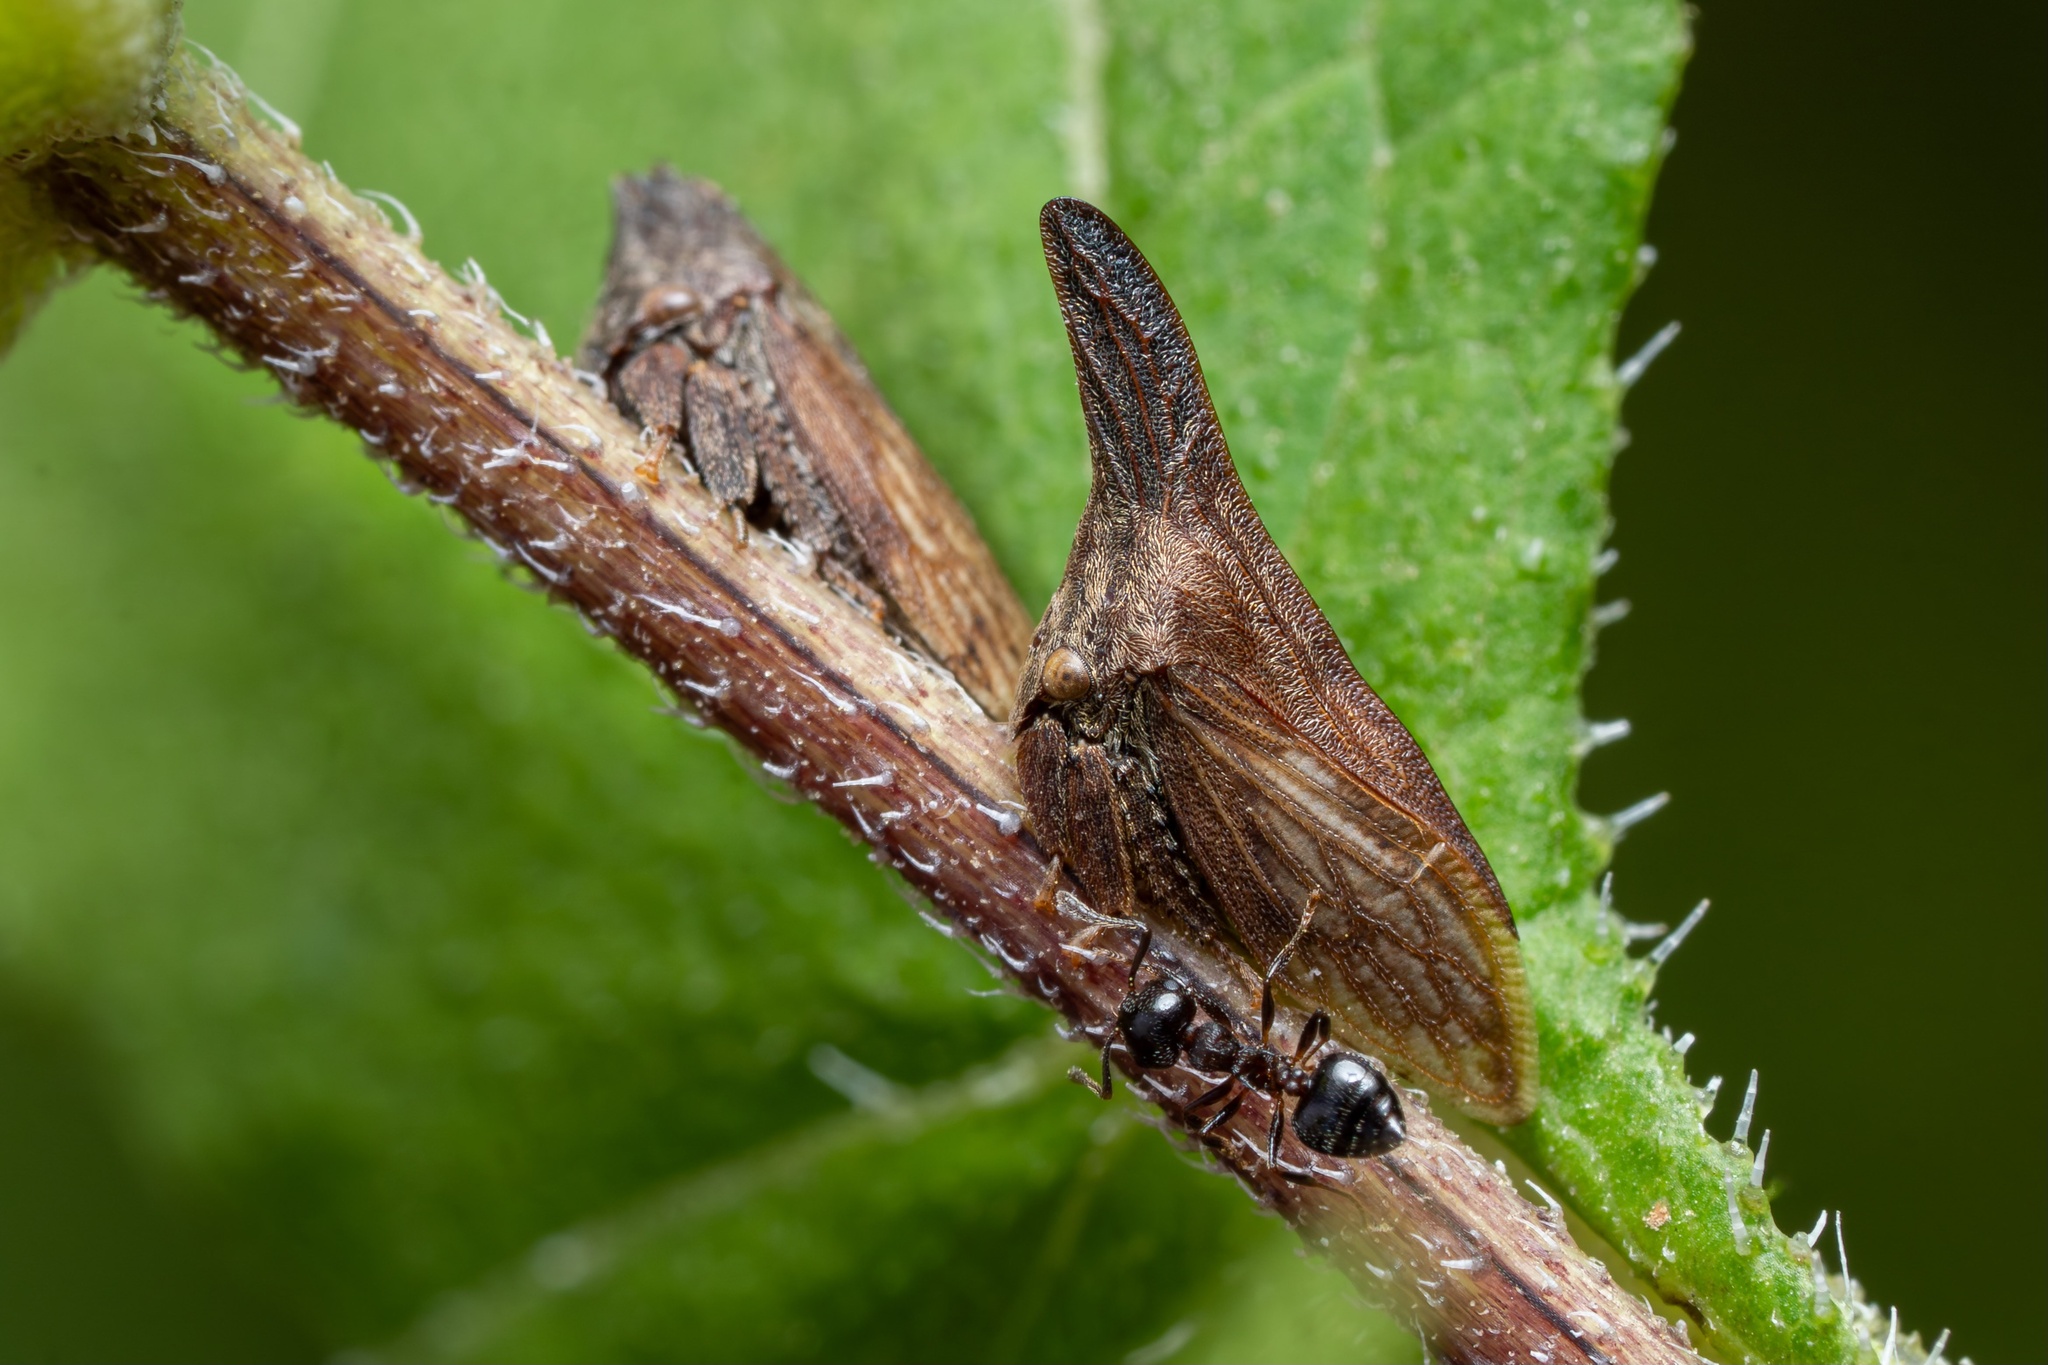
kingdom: Animalia
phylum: Arthropoda
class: Insecta
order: Hemiptera
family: Membracidae
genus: Enchenopa
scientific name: Enchenopa latipes
